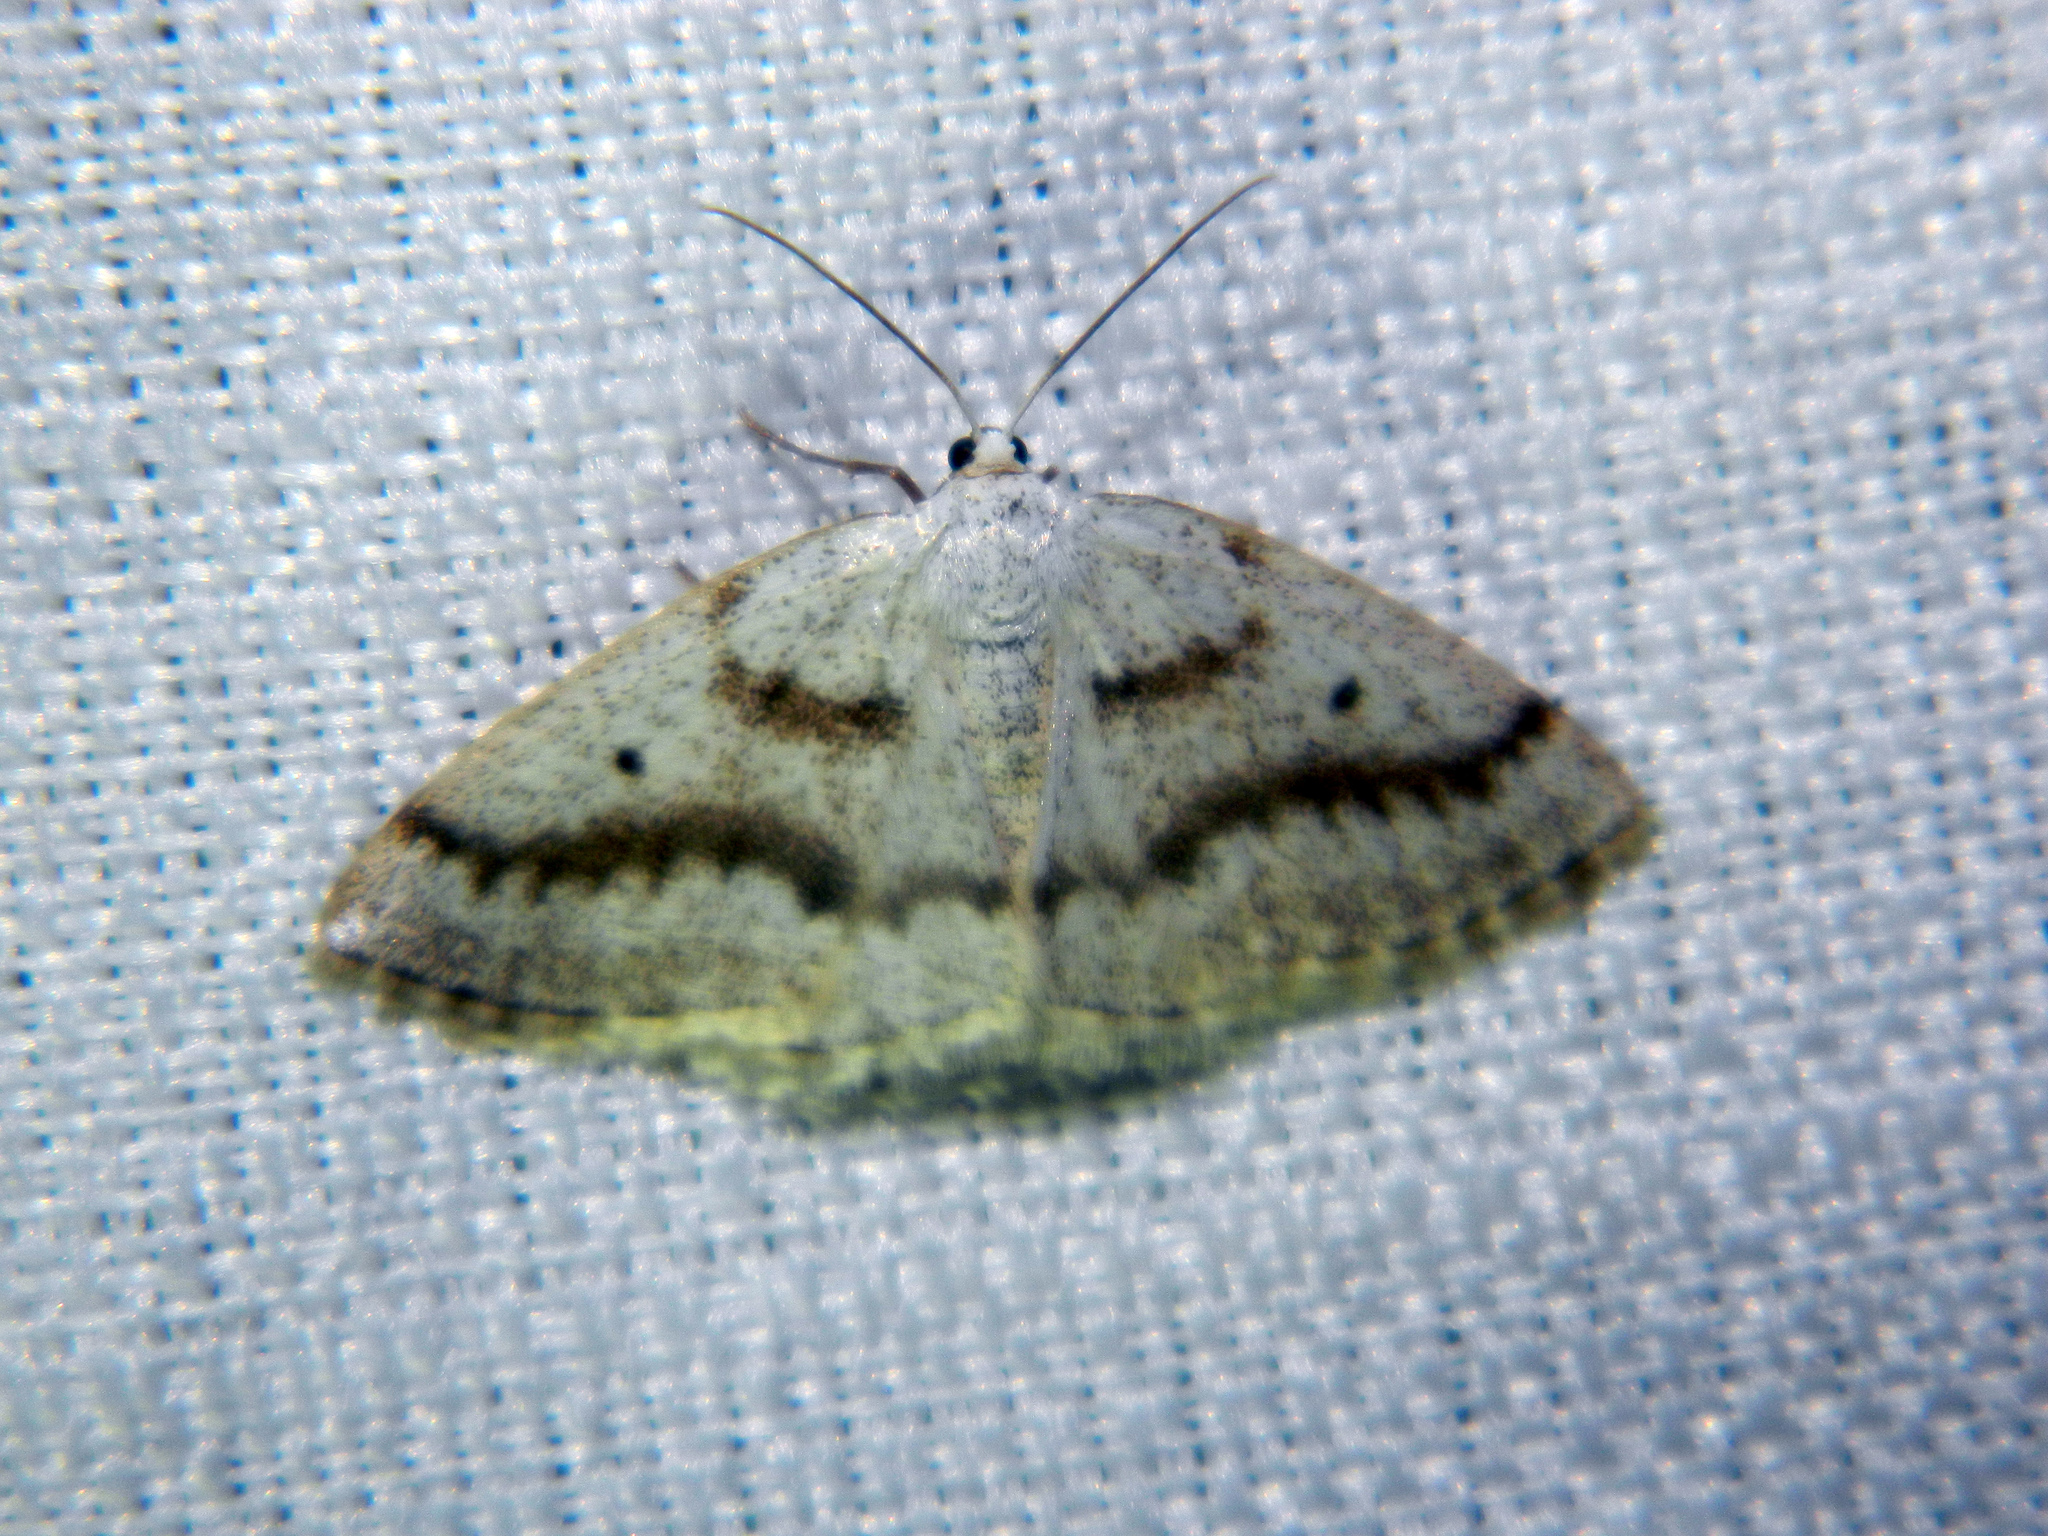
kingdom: Animalia
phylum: Arthropoda
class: Insecta
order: Lepidoptera
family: Geometridae
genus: Lomographa
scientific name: Lomographa glomeraria
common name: Gray spring moth
